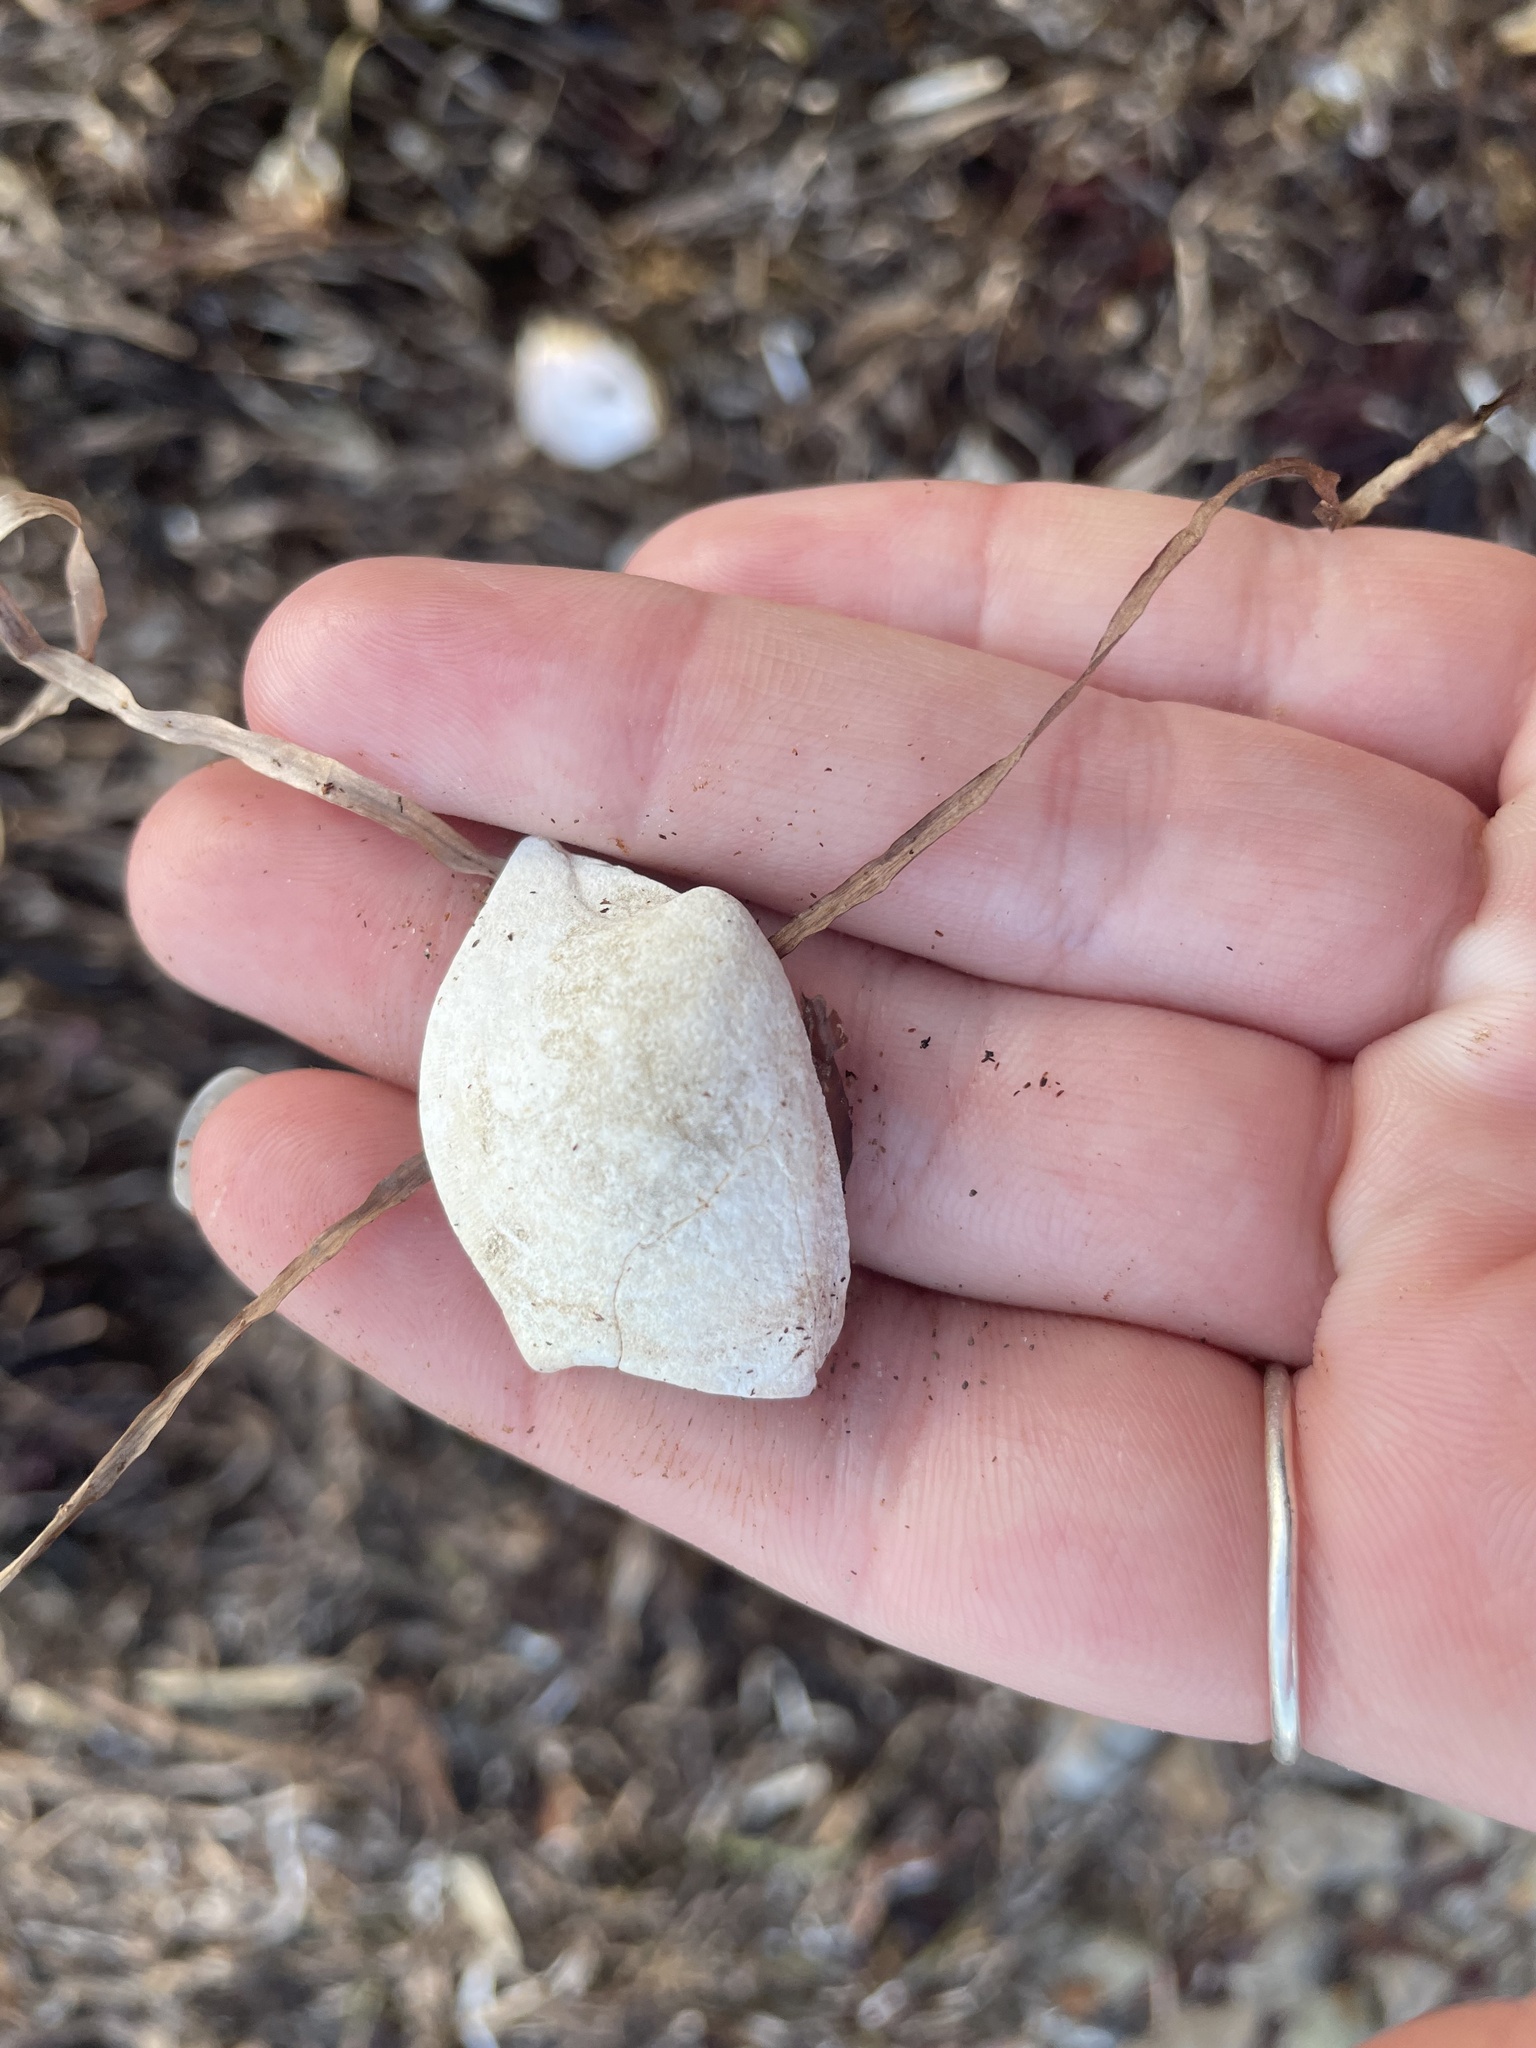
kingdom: Animalia
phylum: Mollusca
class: Bivalvia
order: Venerida
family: Veneridae
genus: Mercenaria
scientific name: Mercenaria mercenaria
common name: American hard-shelled clam
